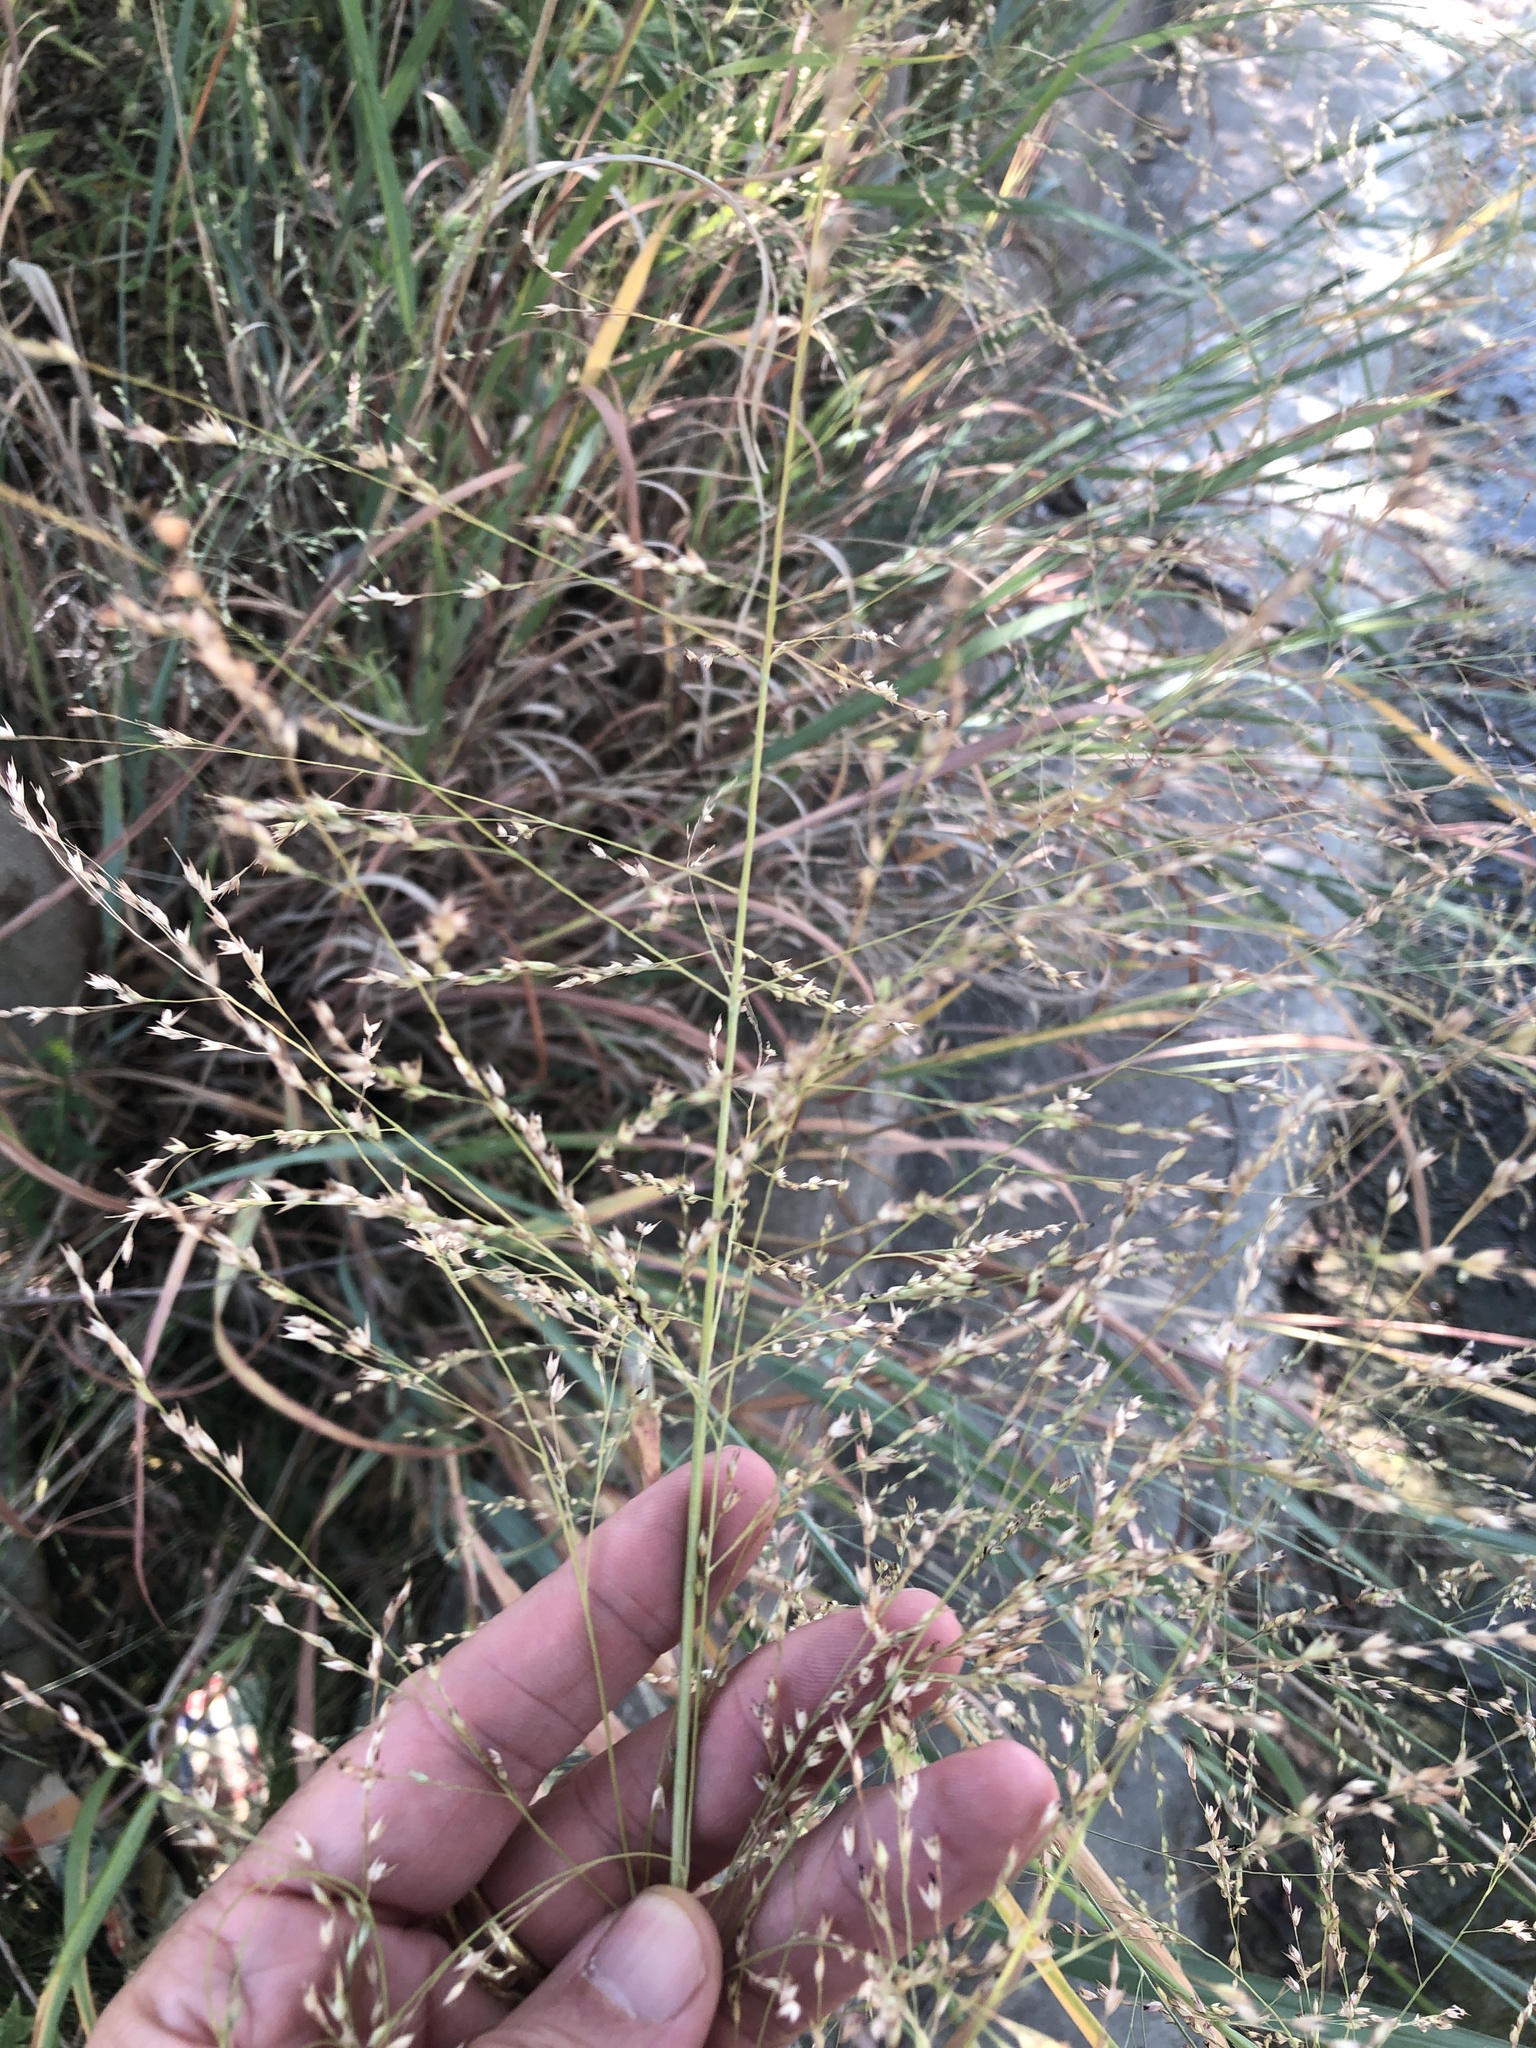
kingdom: Plantae
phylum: Tracheophyta
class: Liliopsida
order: Poales
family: Poaceae
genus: Panicum
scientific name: Panicum virgatum
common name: Switchgrass
